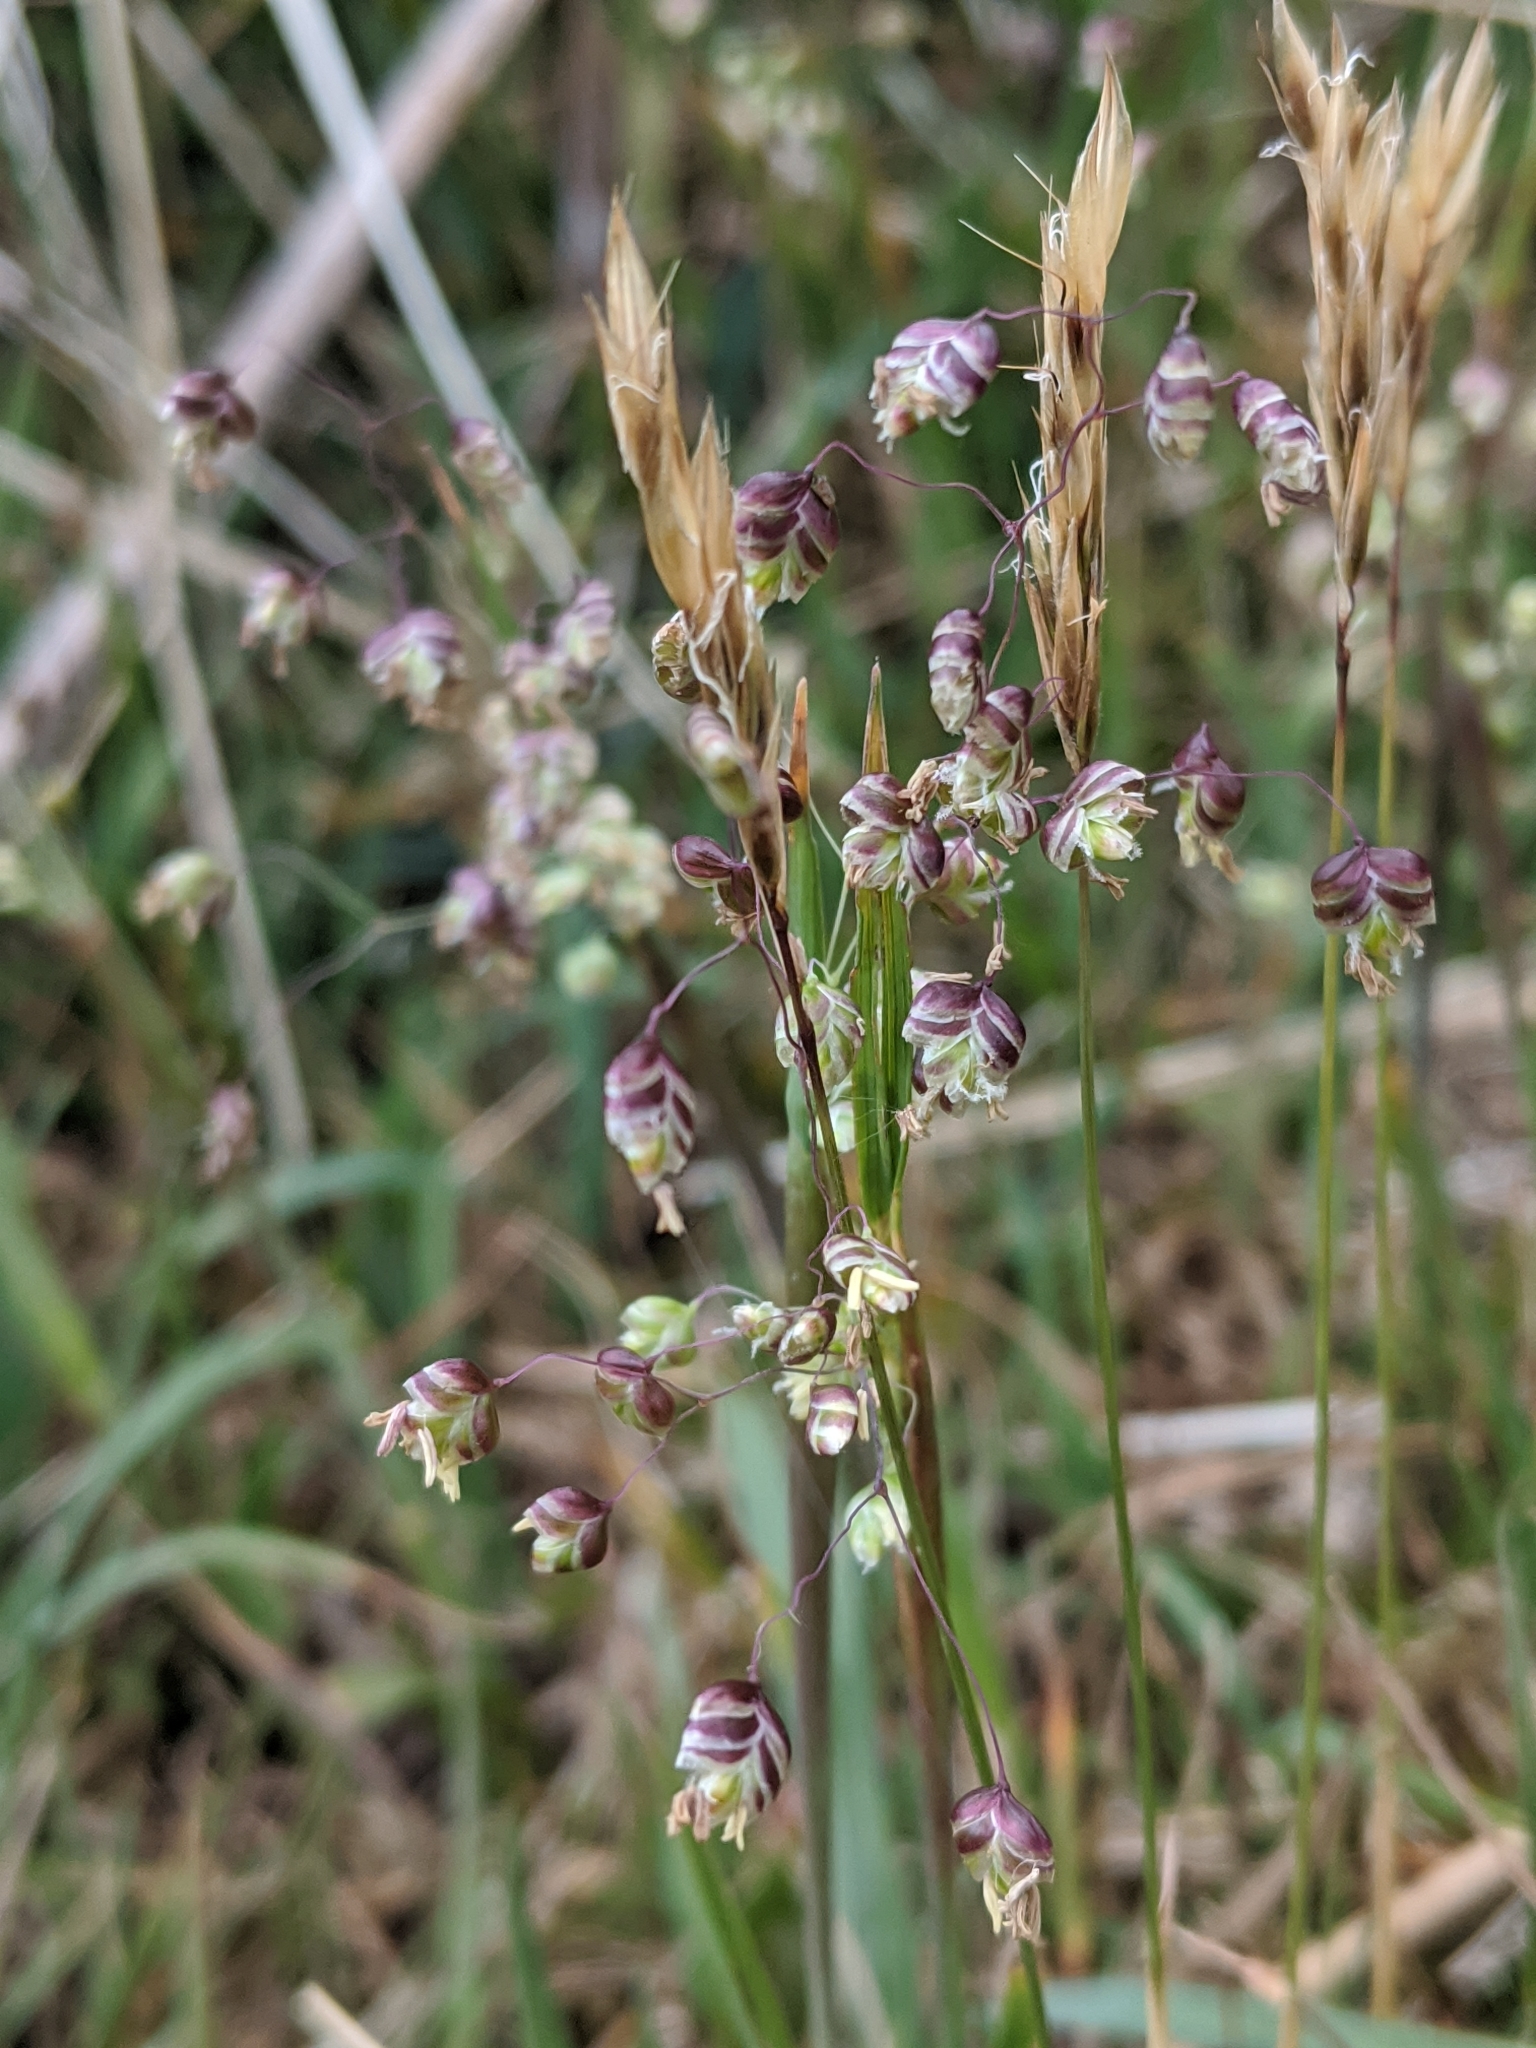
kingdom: Plantae
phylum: Tracheophyta
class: Liliopsida
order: Poales
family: Poaceae
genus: Briza
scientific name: Briza media
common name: Quaking grass
